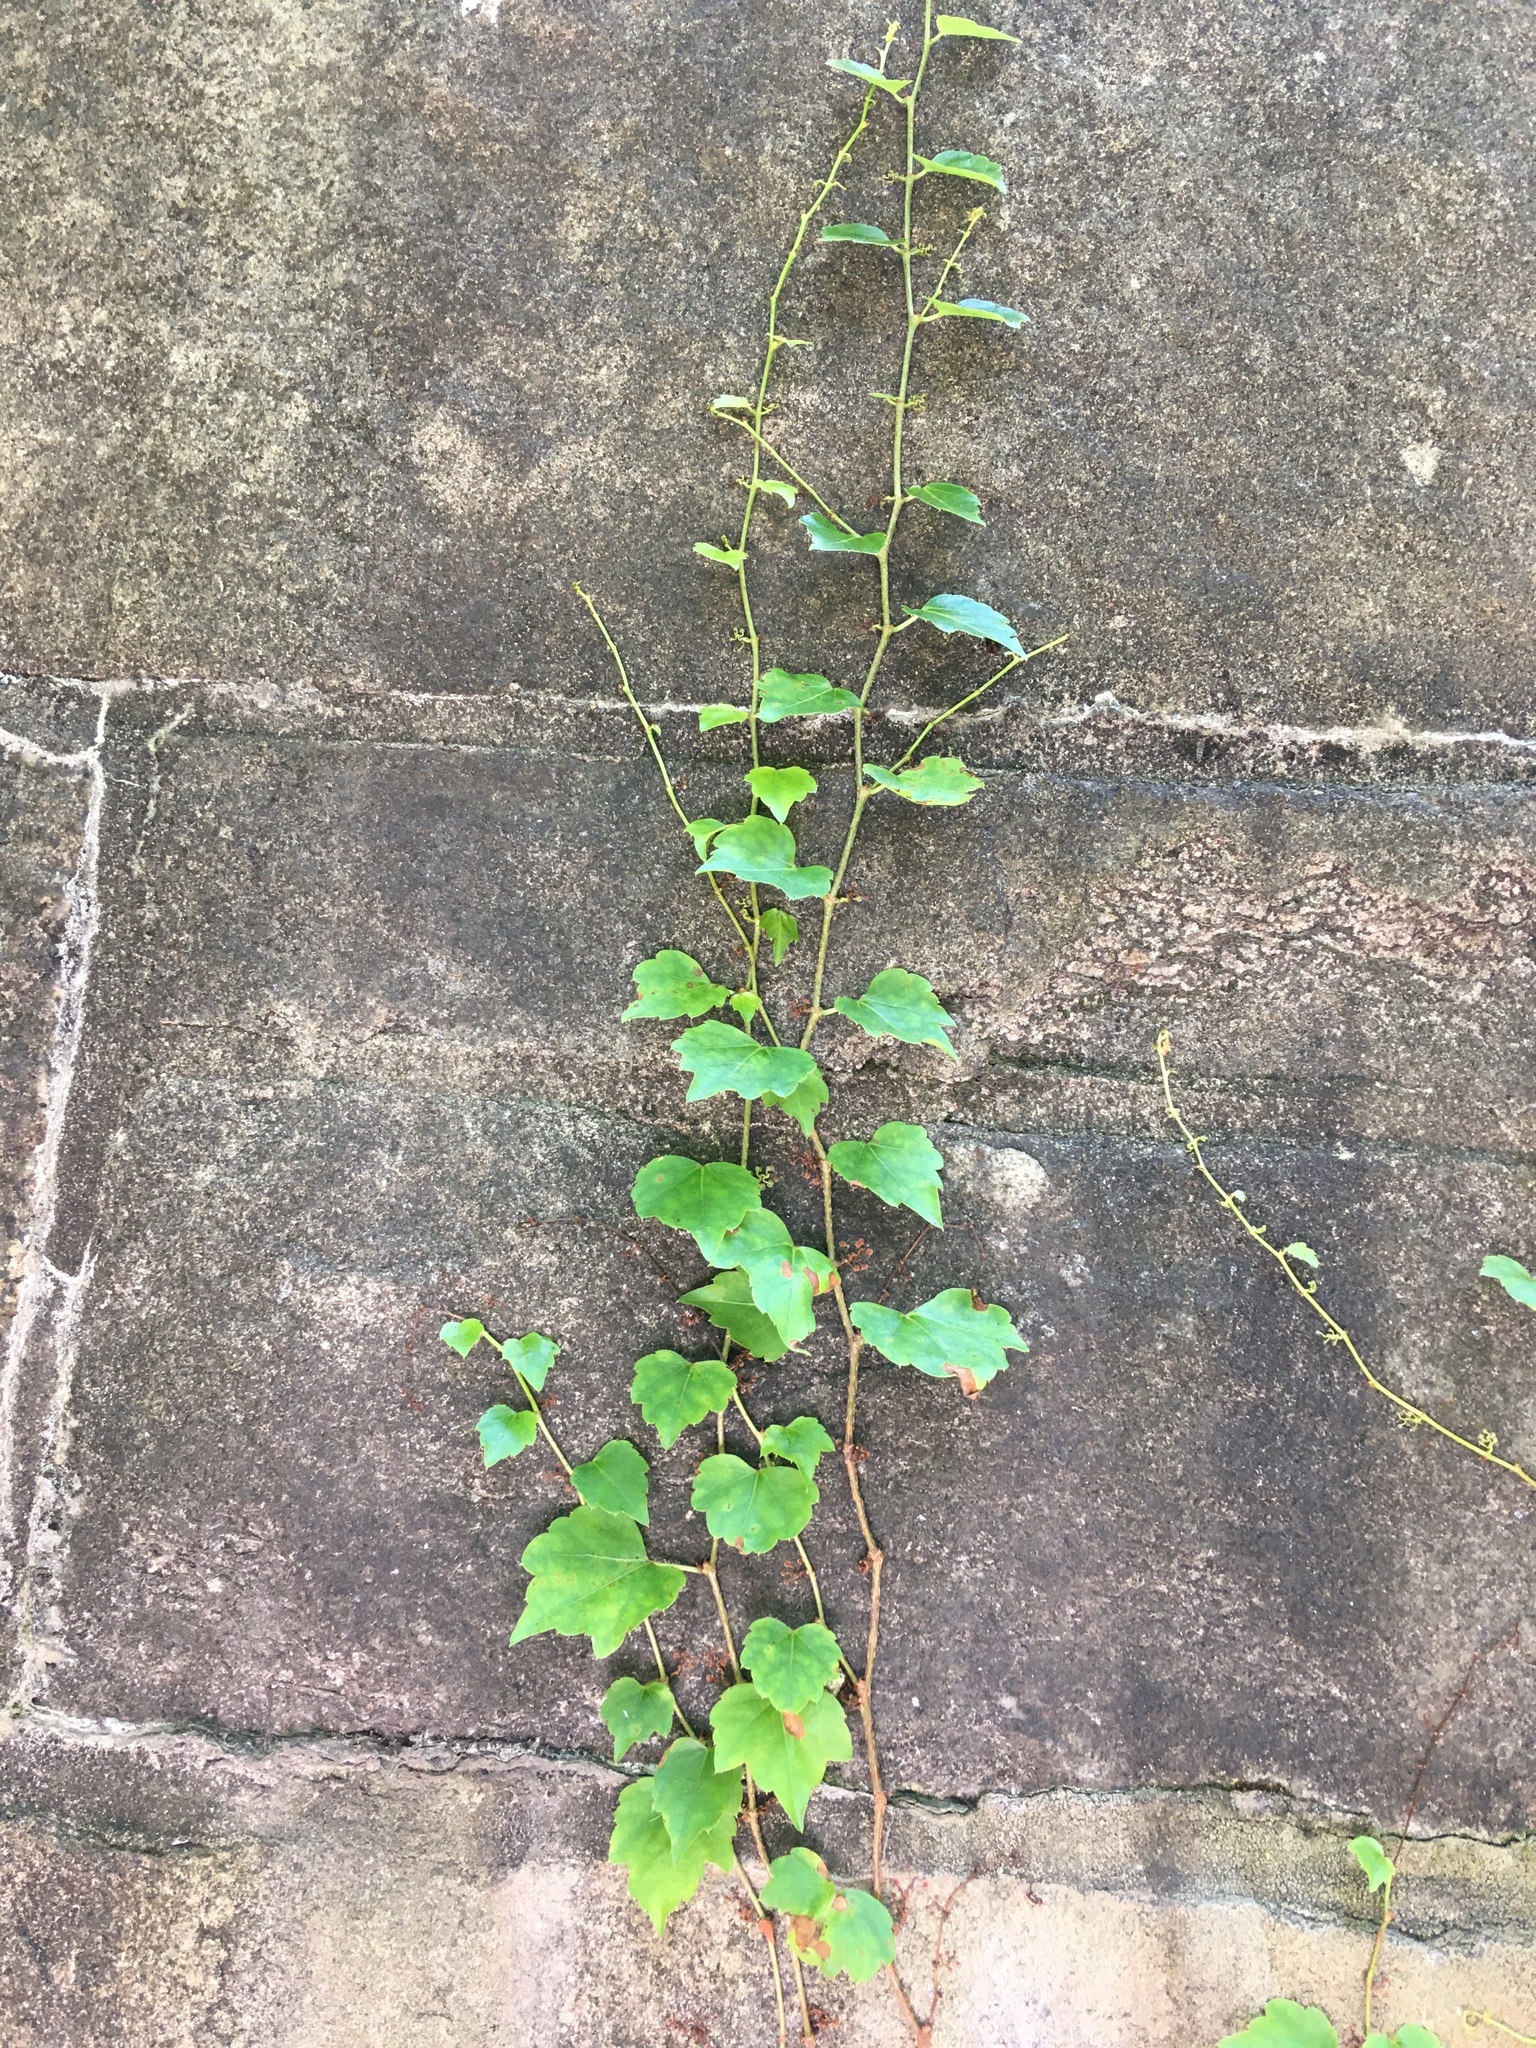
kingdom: Plantae
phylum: Tracheophyta
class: Magnoliopsida
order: Vitales
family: Vitaceae
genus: Parthenocissus
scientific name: Parthenocissus tricuspidata
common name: Boston ivy
